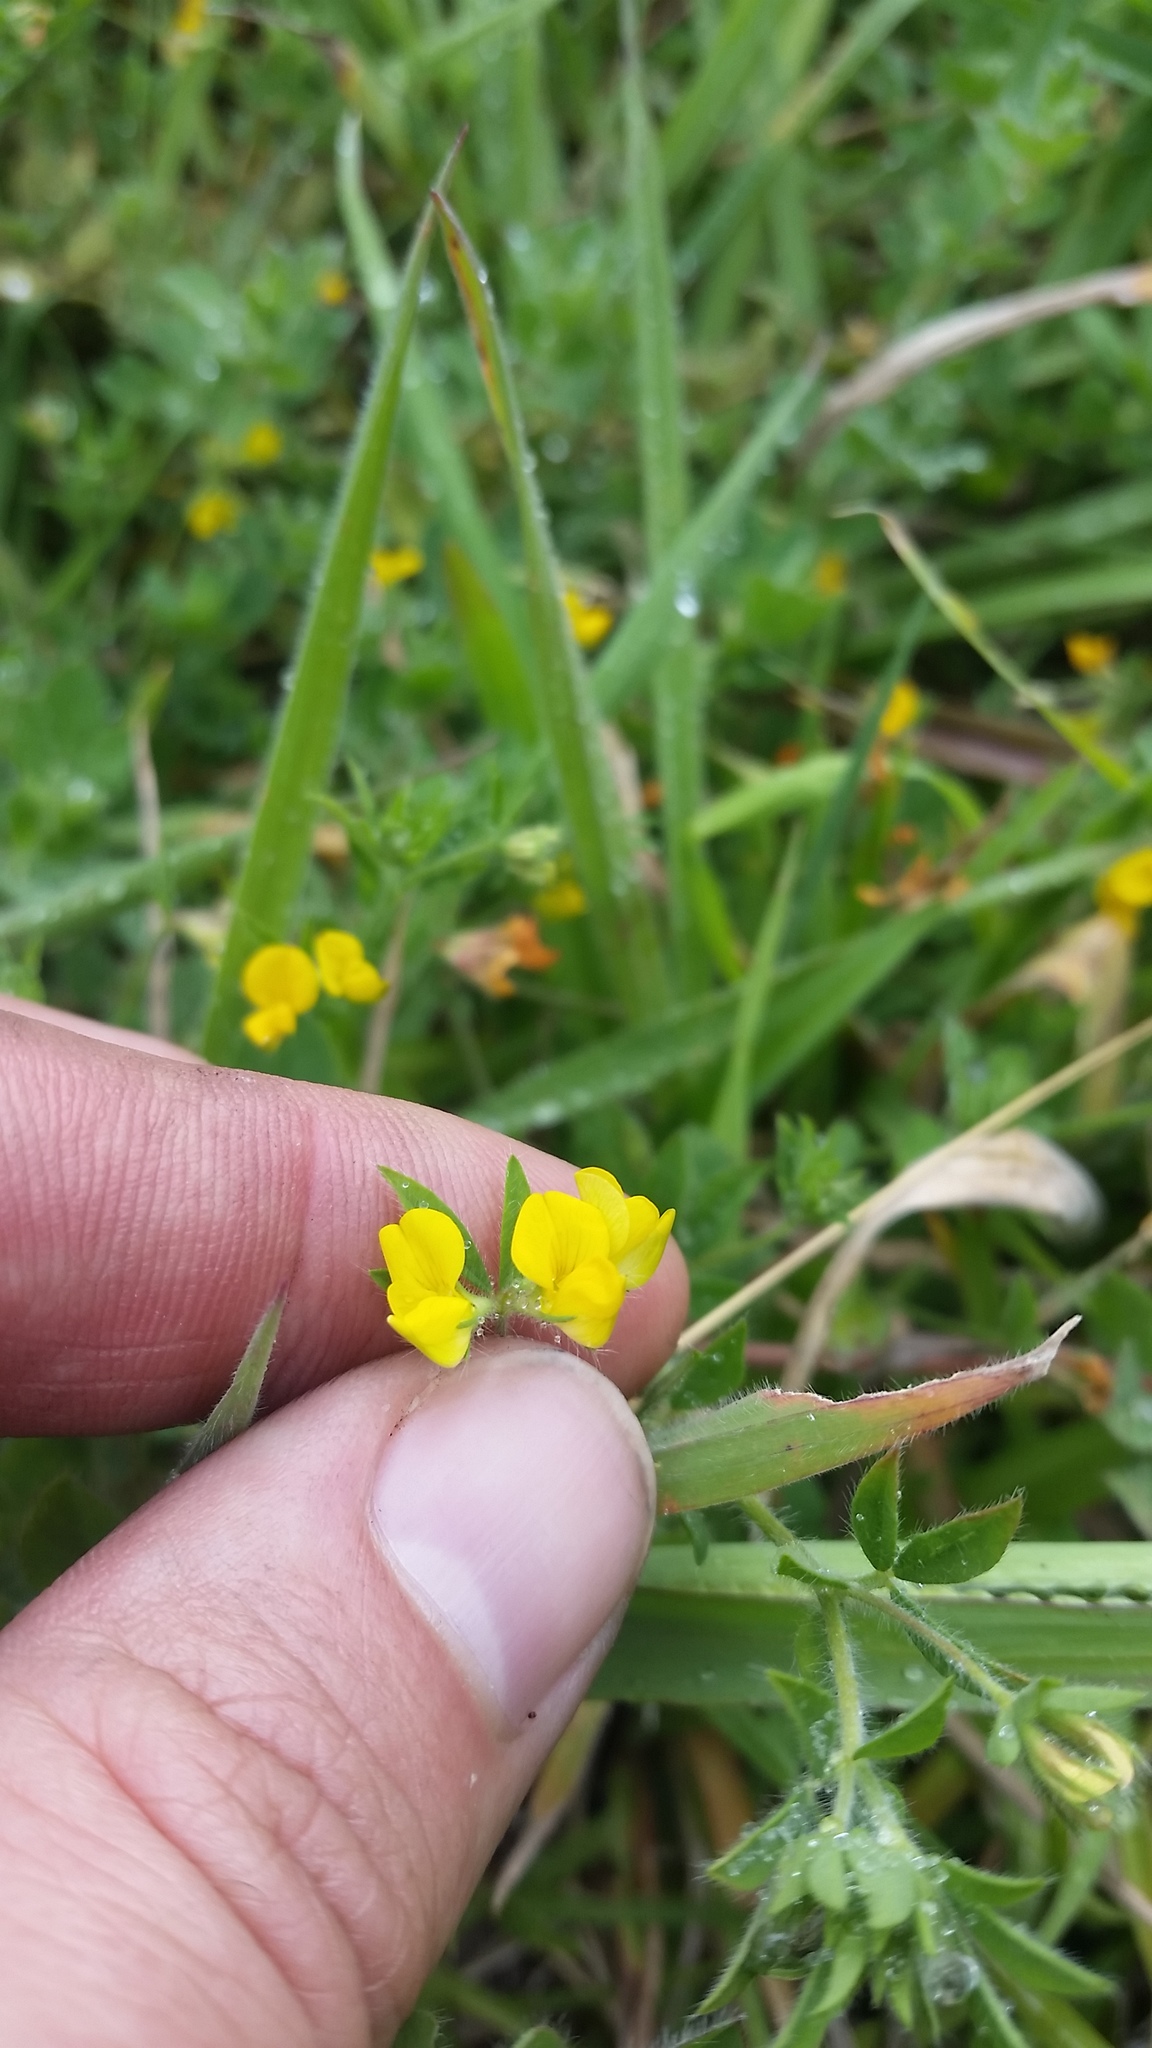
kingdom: Plantae
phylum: Tracheophyta
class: Magnoliopsida
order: Fabales
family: Fabaceae
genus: Lotus
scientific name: Lotus subbiflorus
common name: Hairy bird's-foot trefoil
